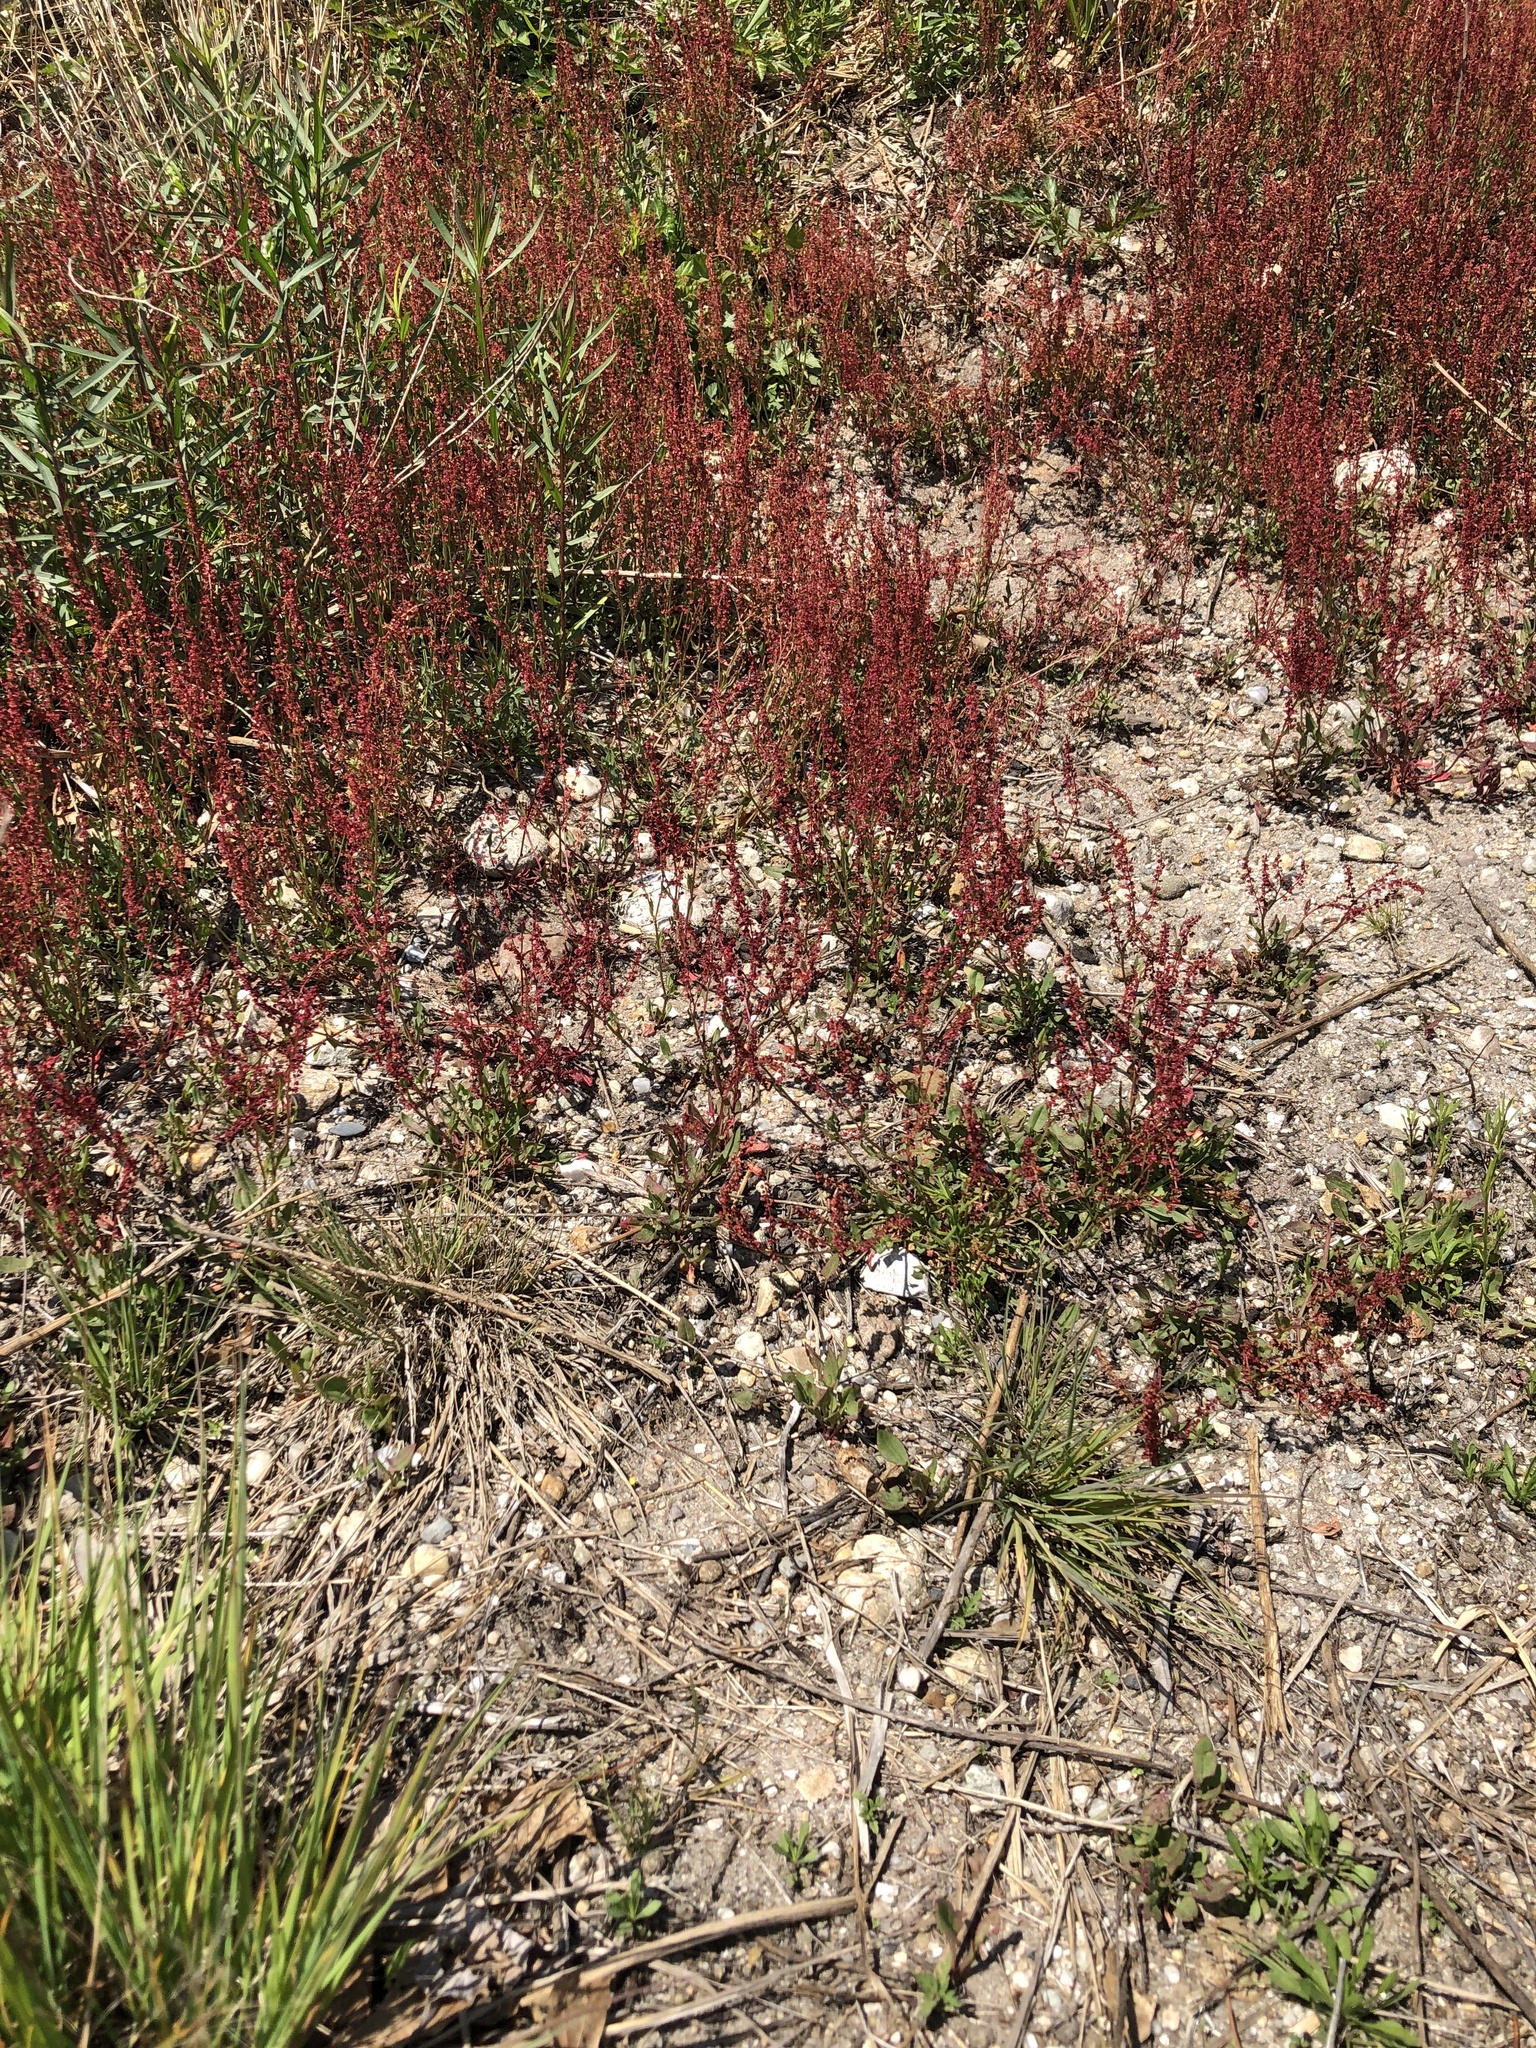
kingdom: Plantae
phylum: Tracheophyta
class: Magnoliopsida
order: Caryophyllales
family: Polygonaceae
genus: Rumex
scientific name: Rumex acetosella
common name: Common sheep sorrel
